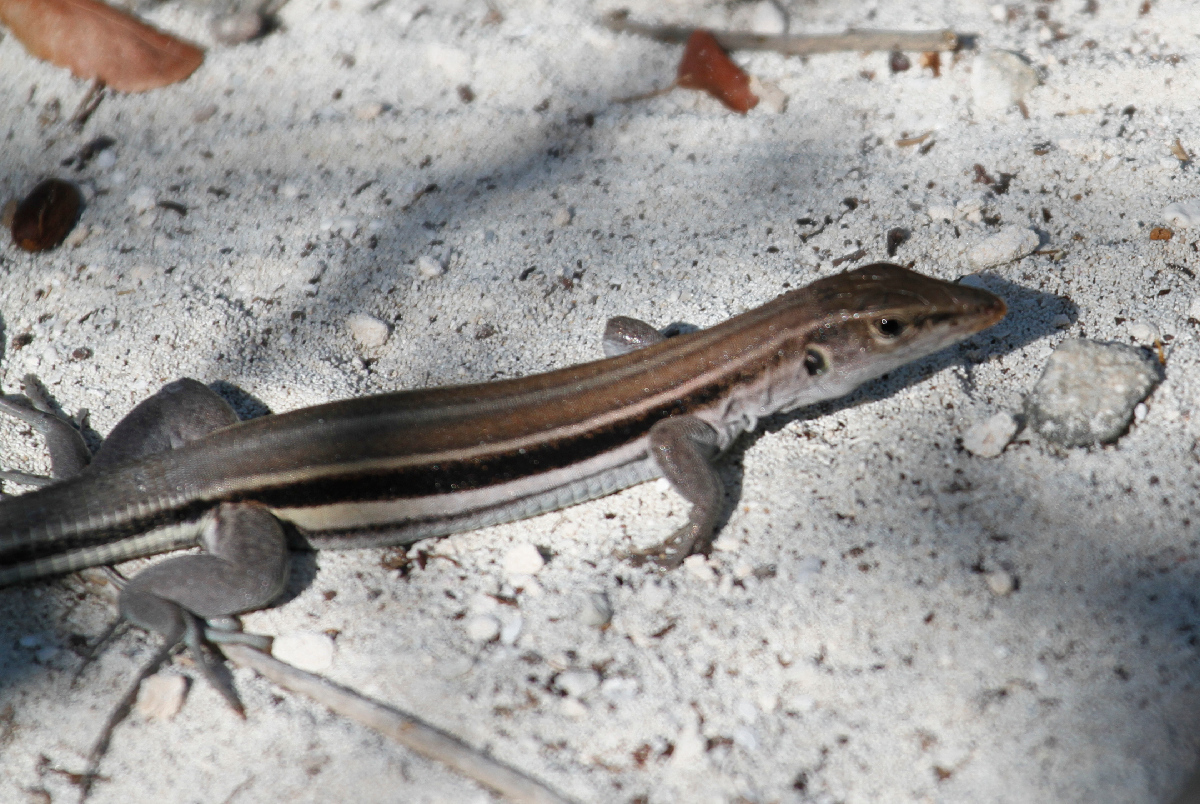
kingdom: Animalia
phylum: Chordata
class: Squamata
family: Teiidae
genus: Pholidoscelis
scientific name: Pholidoscelis auberi
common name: Auber's ameiva
